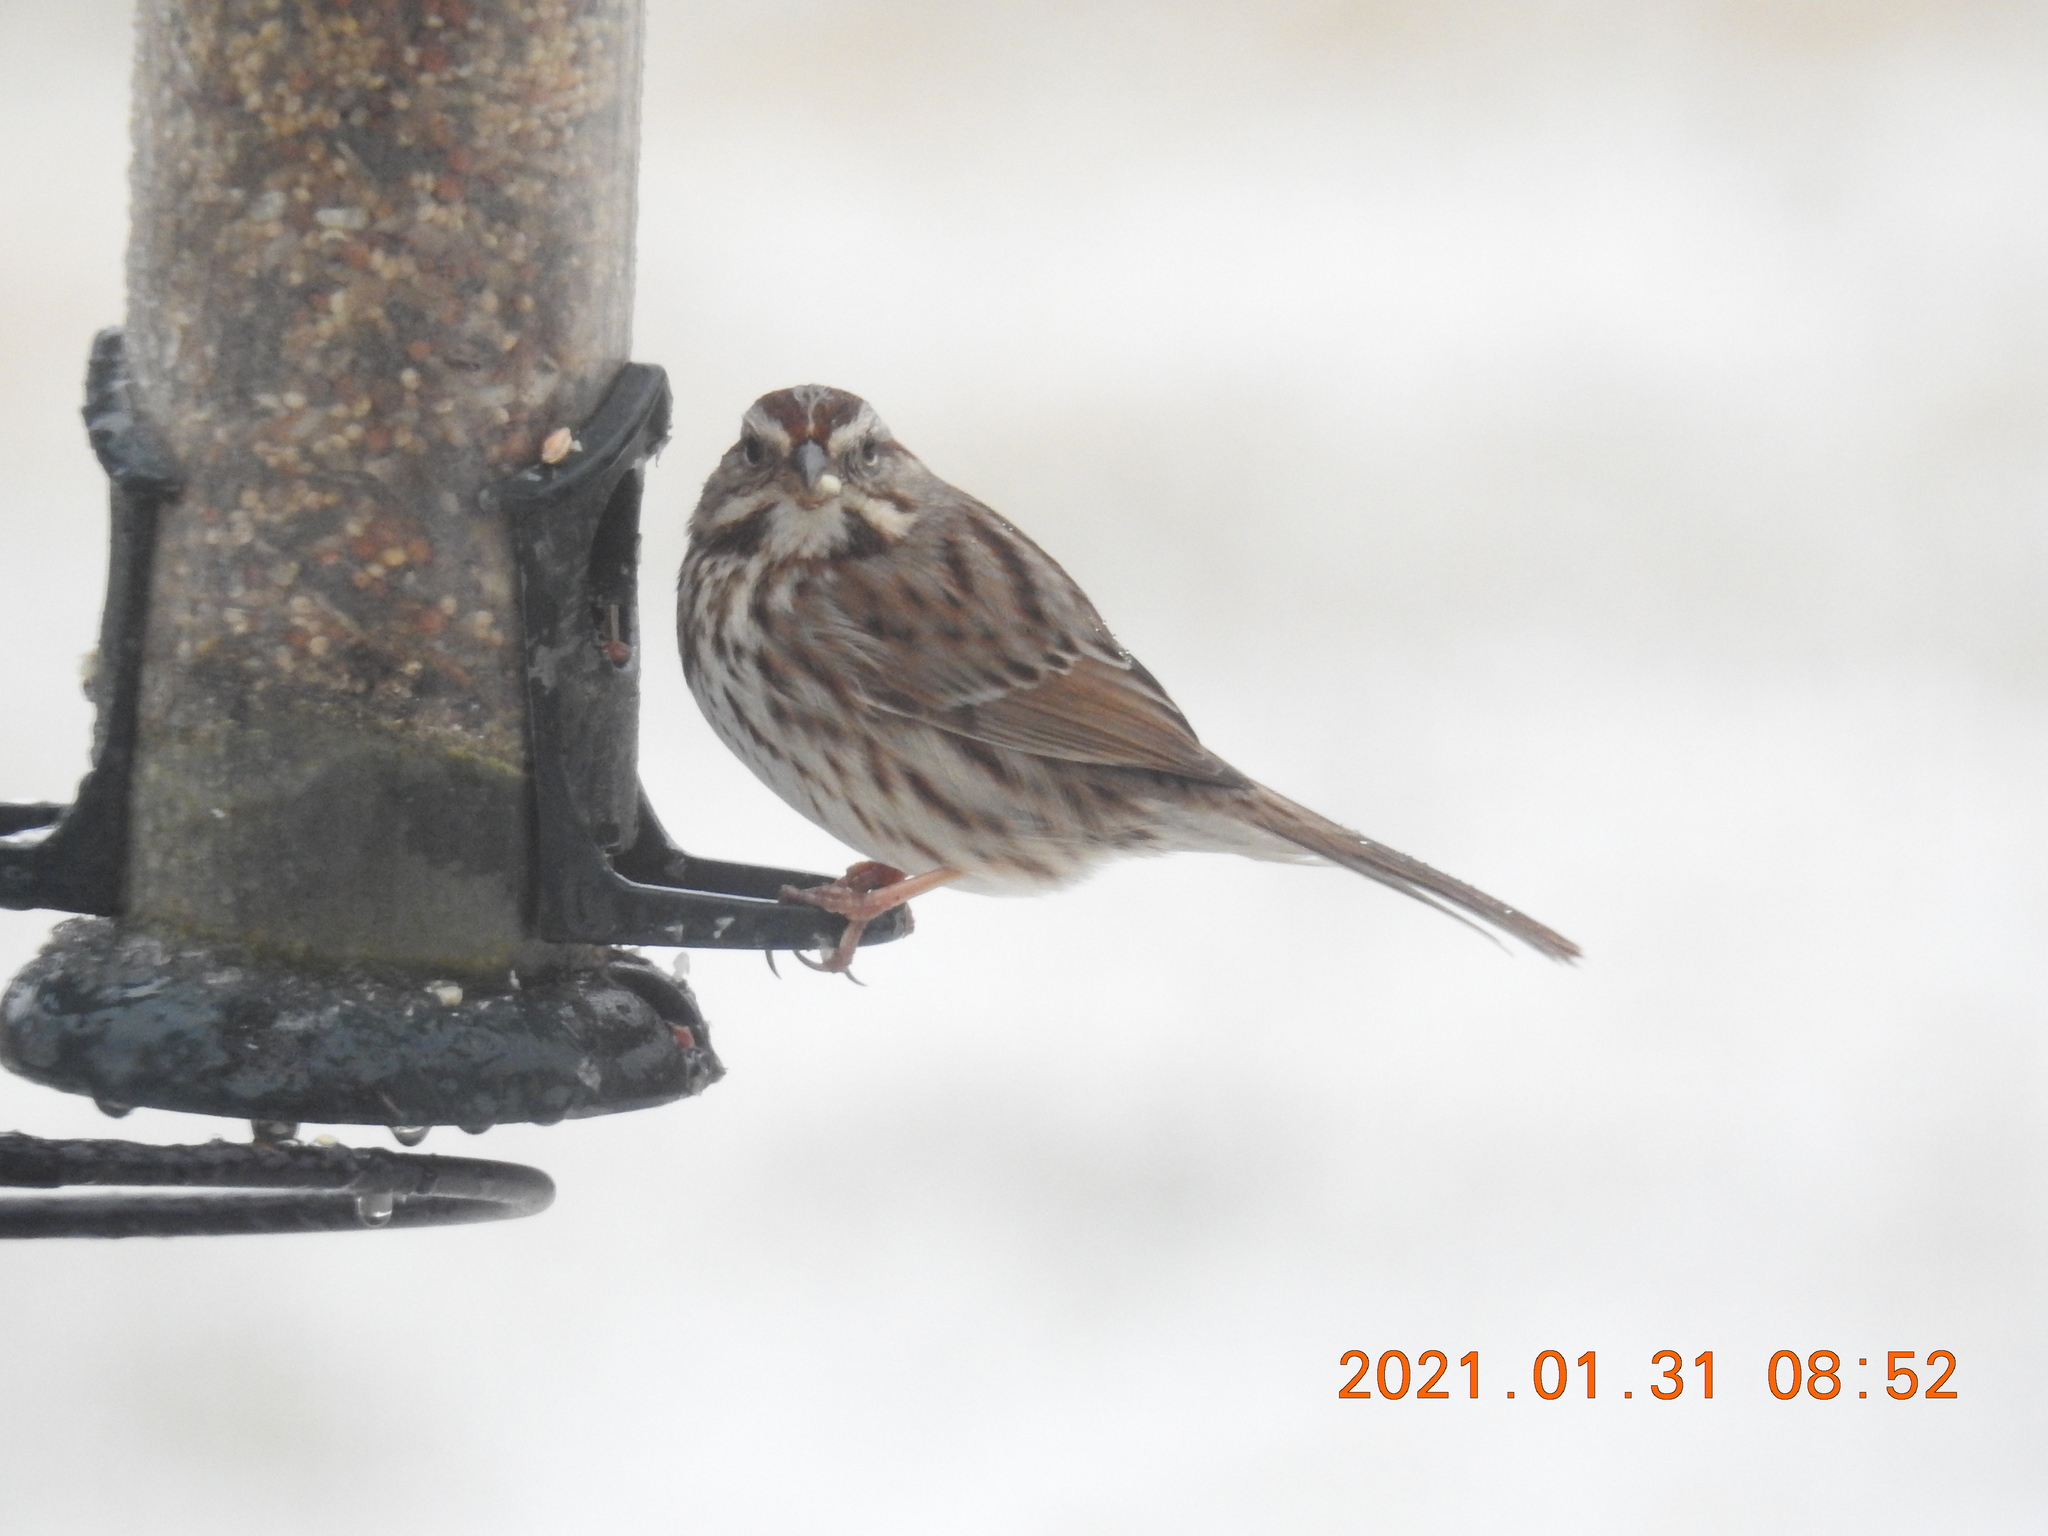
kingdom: Animalia
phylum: Chordata
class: Aves
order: Passeriformes
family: Passerellidae
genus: Melospiza
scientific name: Melospiza melodia
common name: Song sparrow
